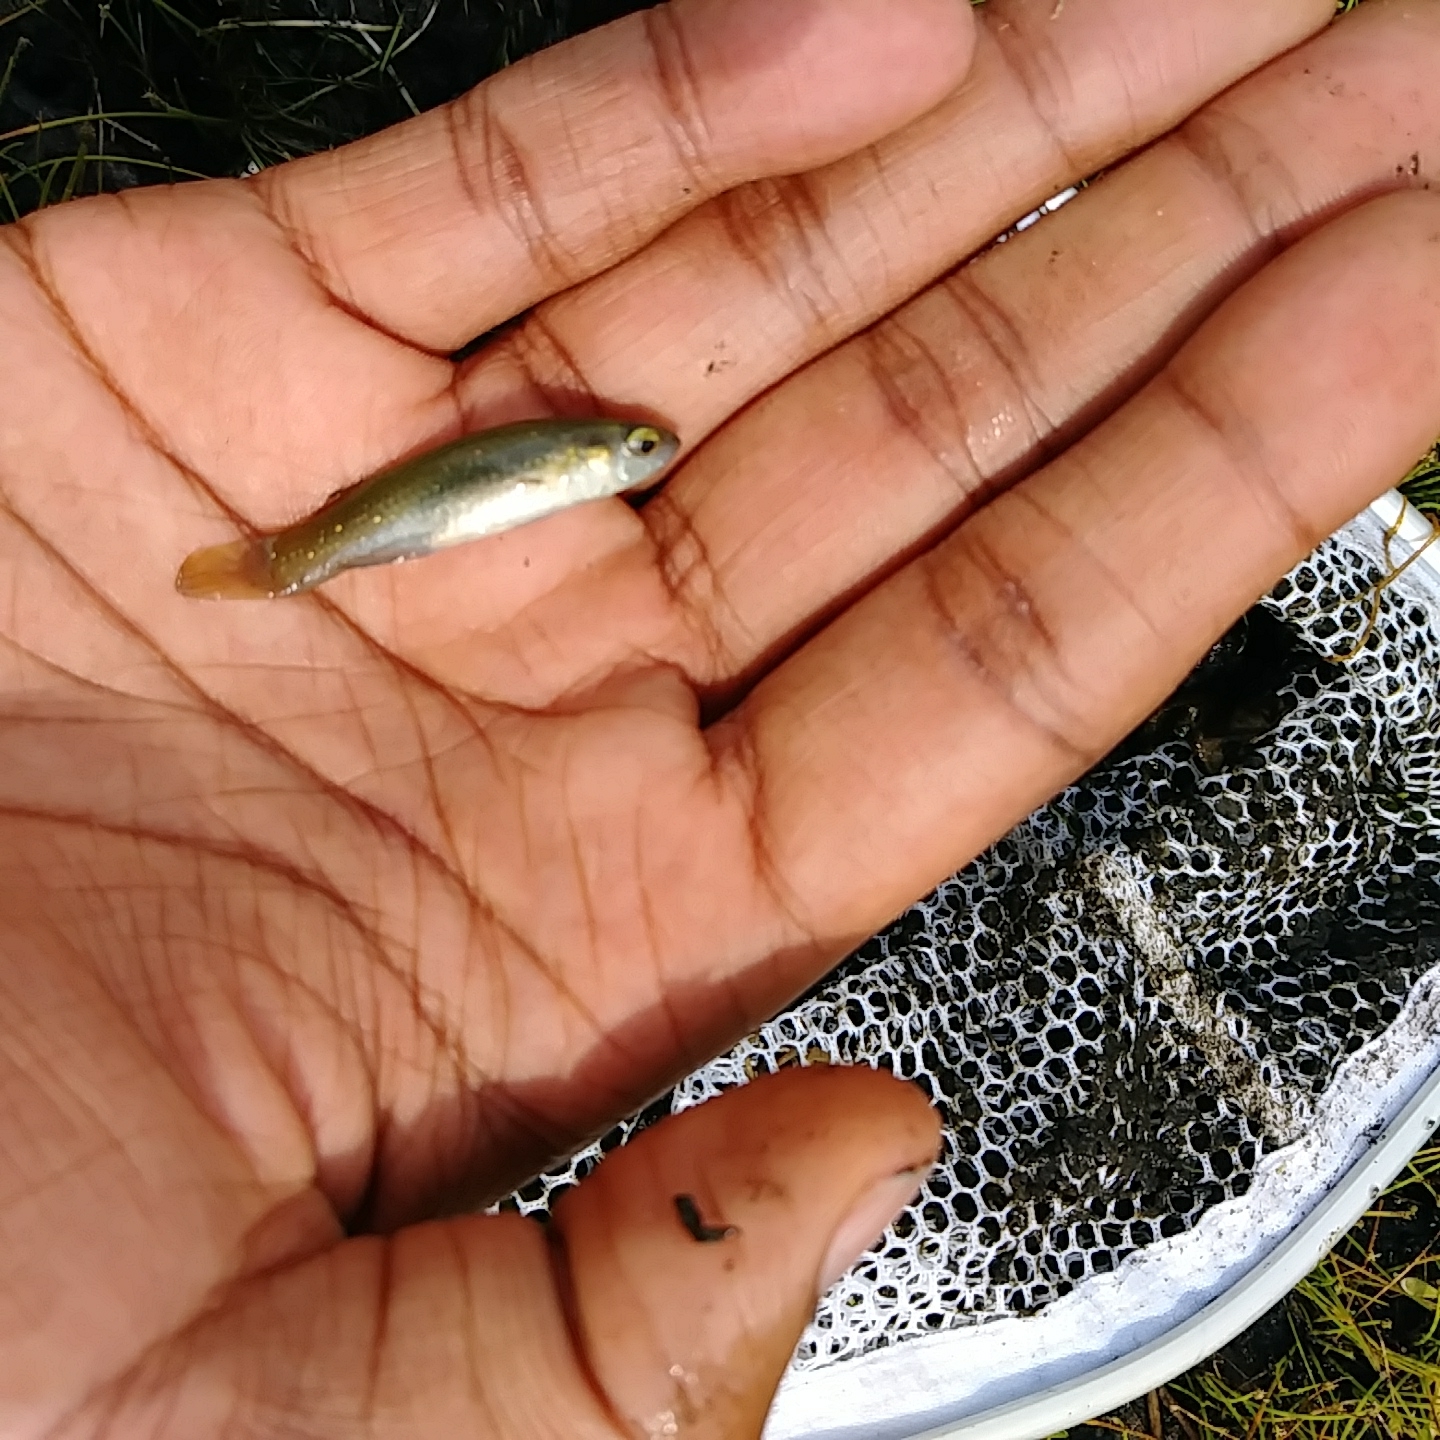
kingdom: Animalia
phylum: Chordata
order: Cyprinodontiformes
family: Fundulidae
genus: Fundulus
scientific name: Fundulus chrysotus
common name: Golden topminnow
